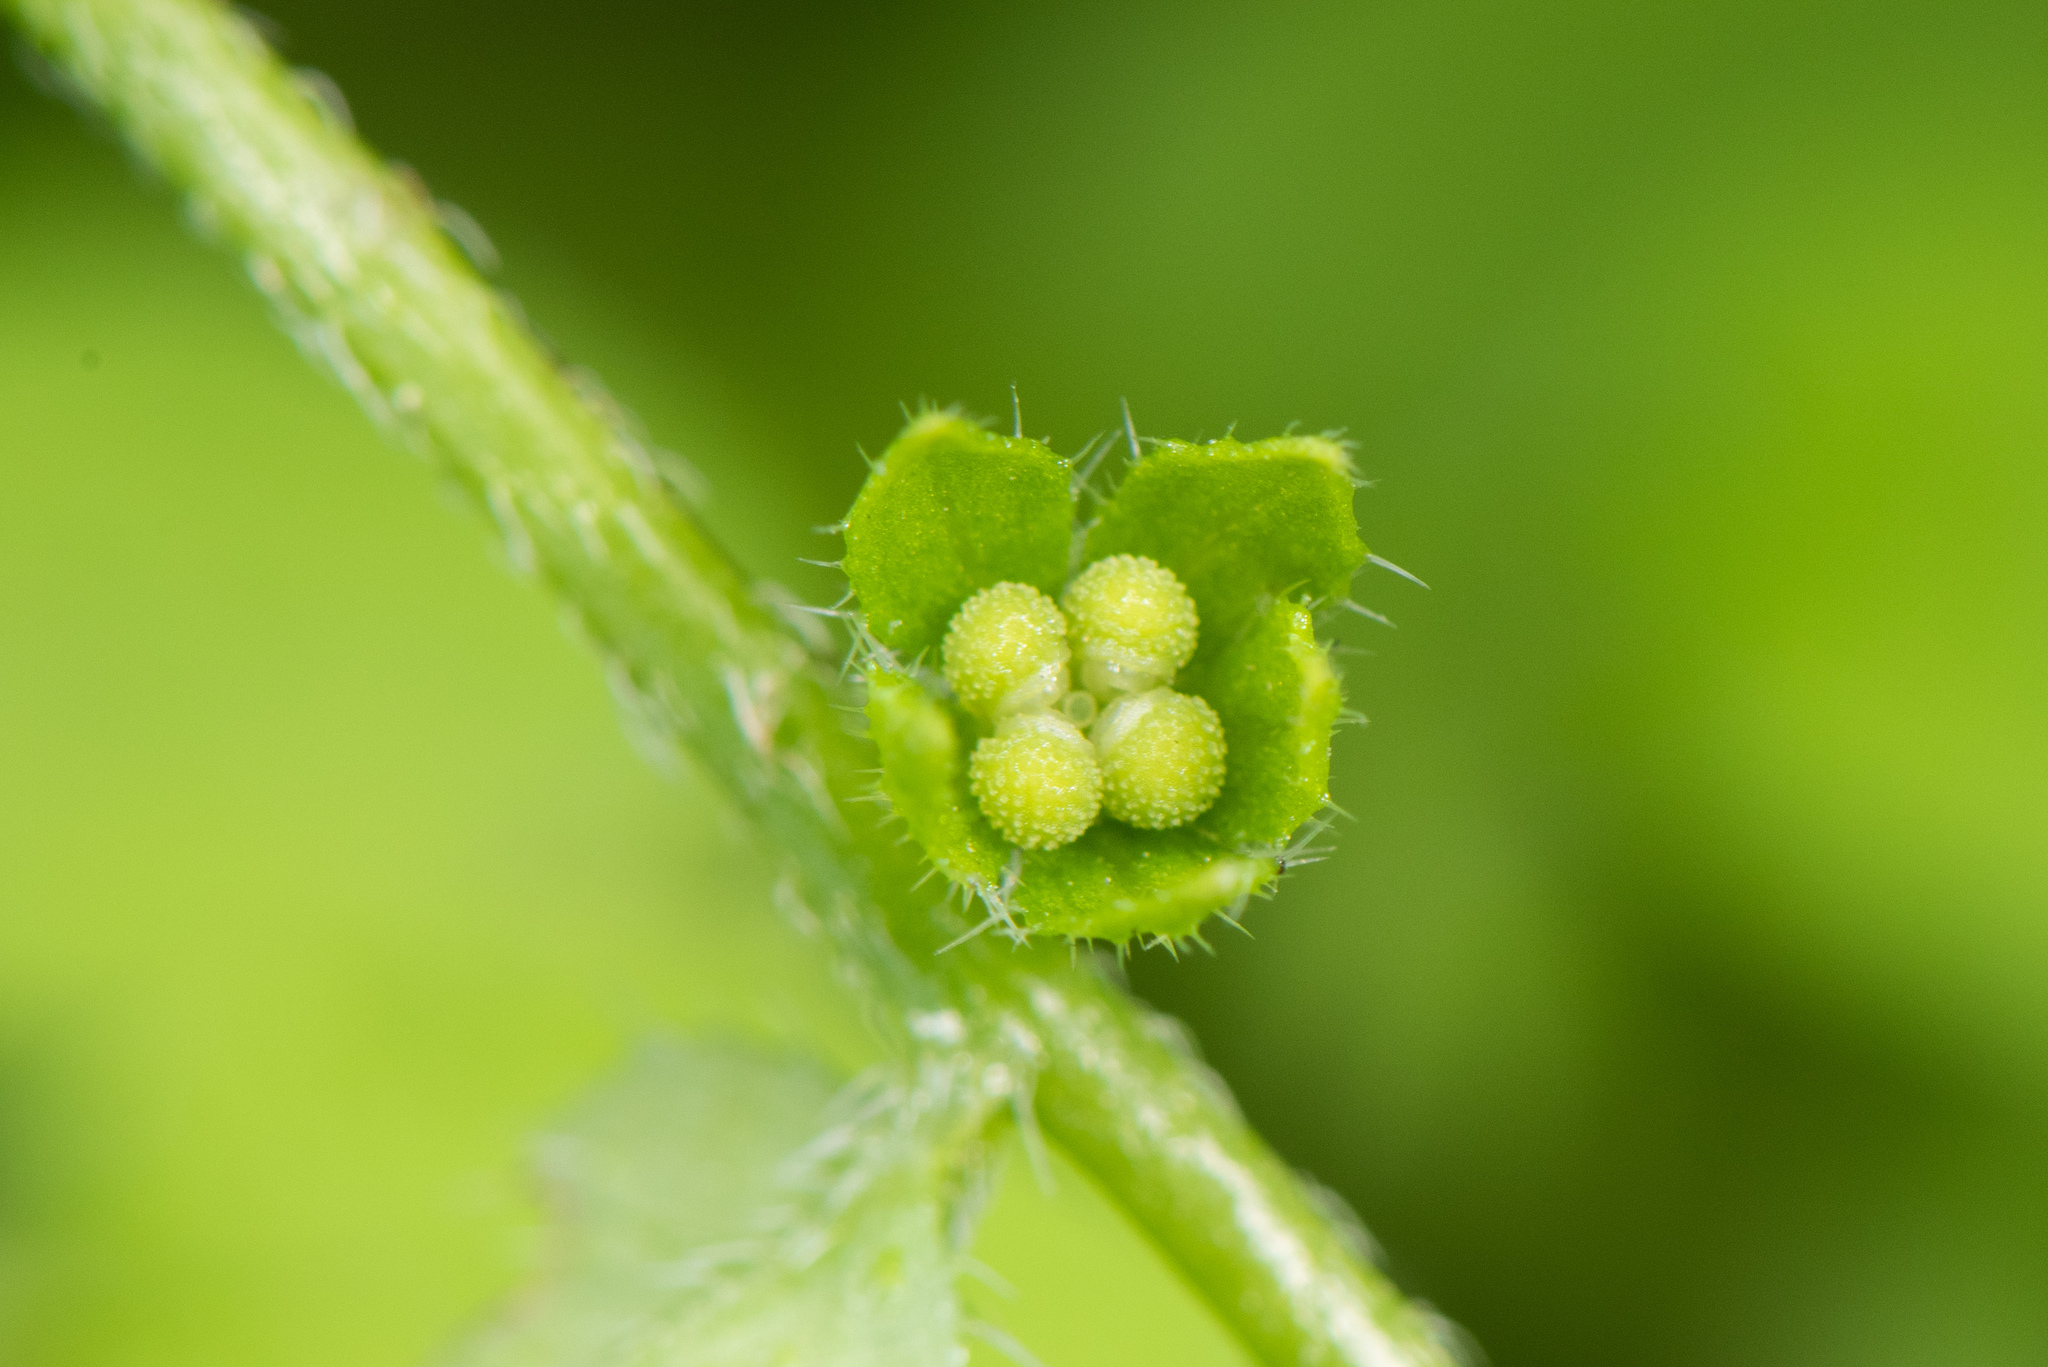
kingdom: Plantae
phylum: Tracheophyta
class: Magnoliopsida
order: Boraginales
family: Boraginaceae
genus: Bothriospermum
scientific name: Bothriospermum zeylanicum
